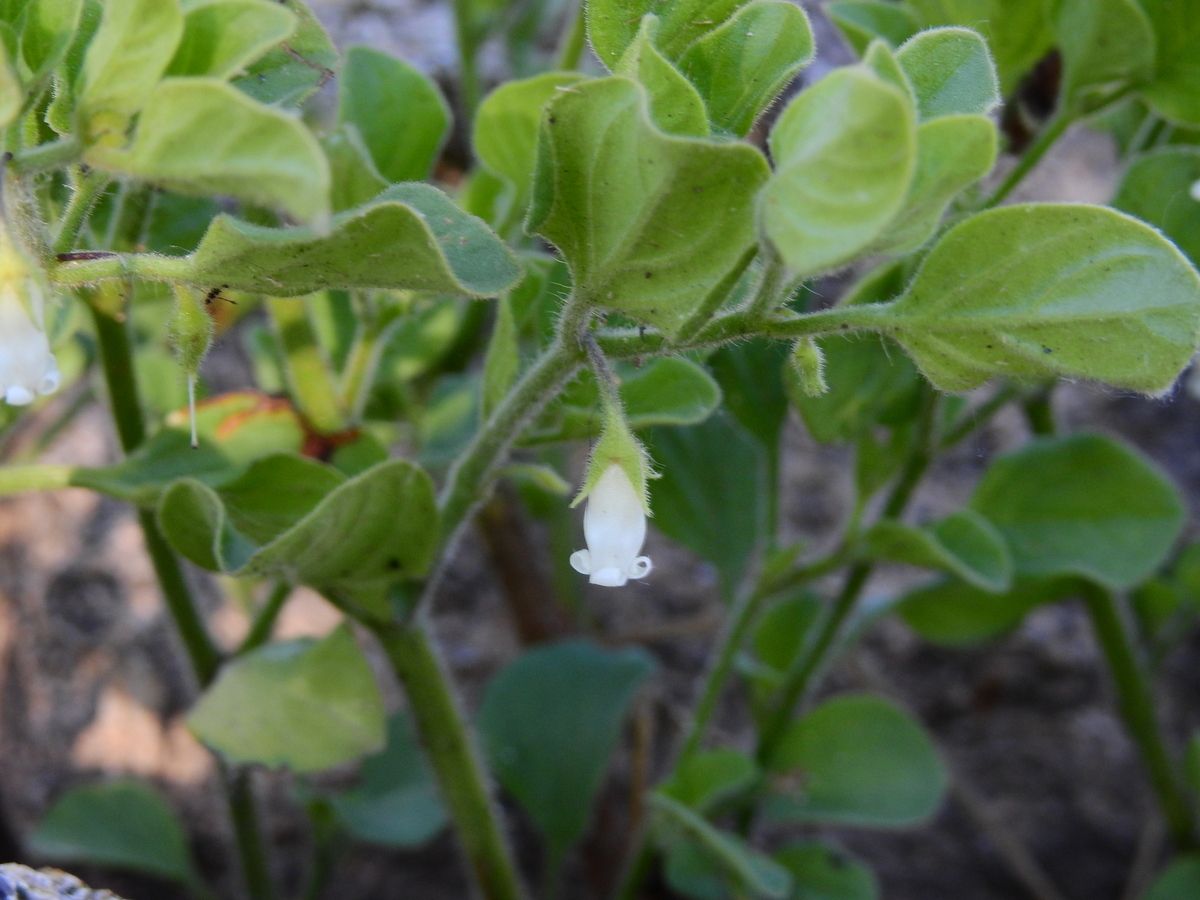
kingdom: Plantae
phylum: Tracheophyta
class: Magnoliopsida
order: Solanales
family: Solanaceae
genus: Salpichroa
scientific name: Salpichroa origanifolia
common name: Lily-of-the-valley-vine
